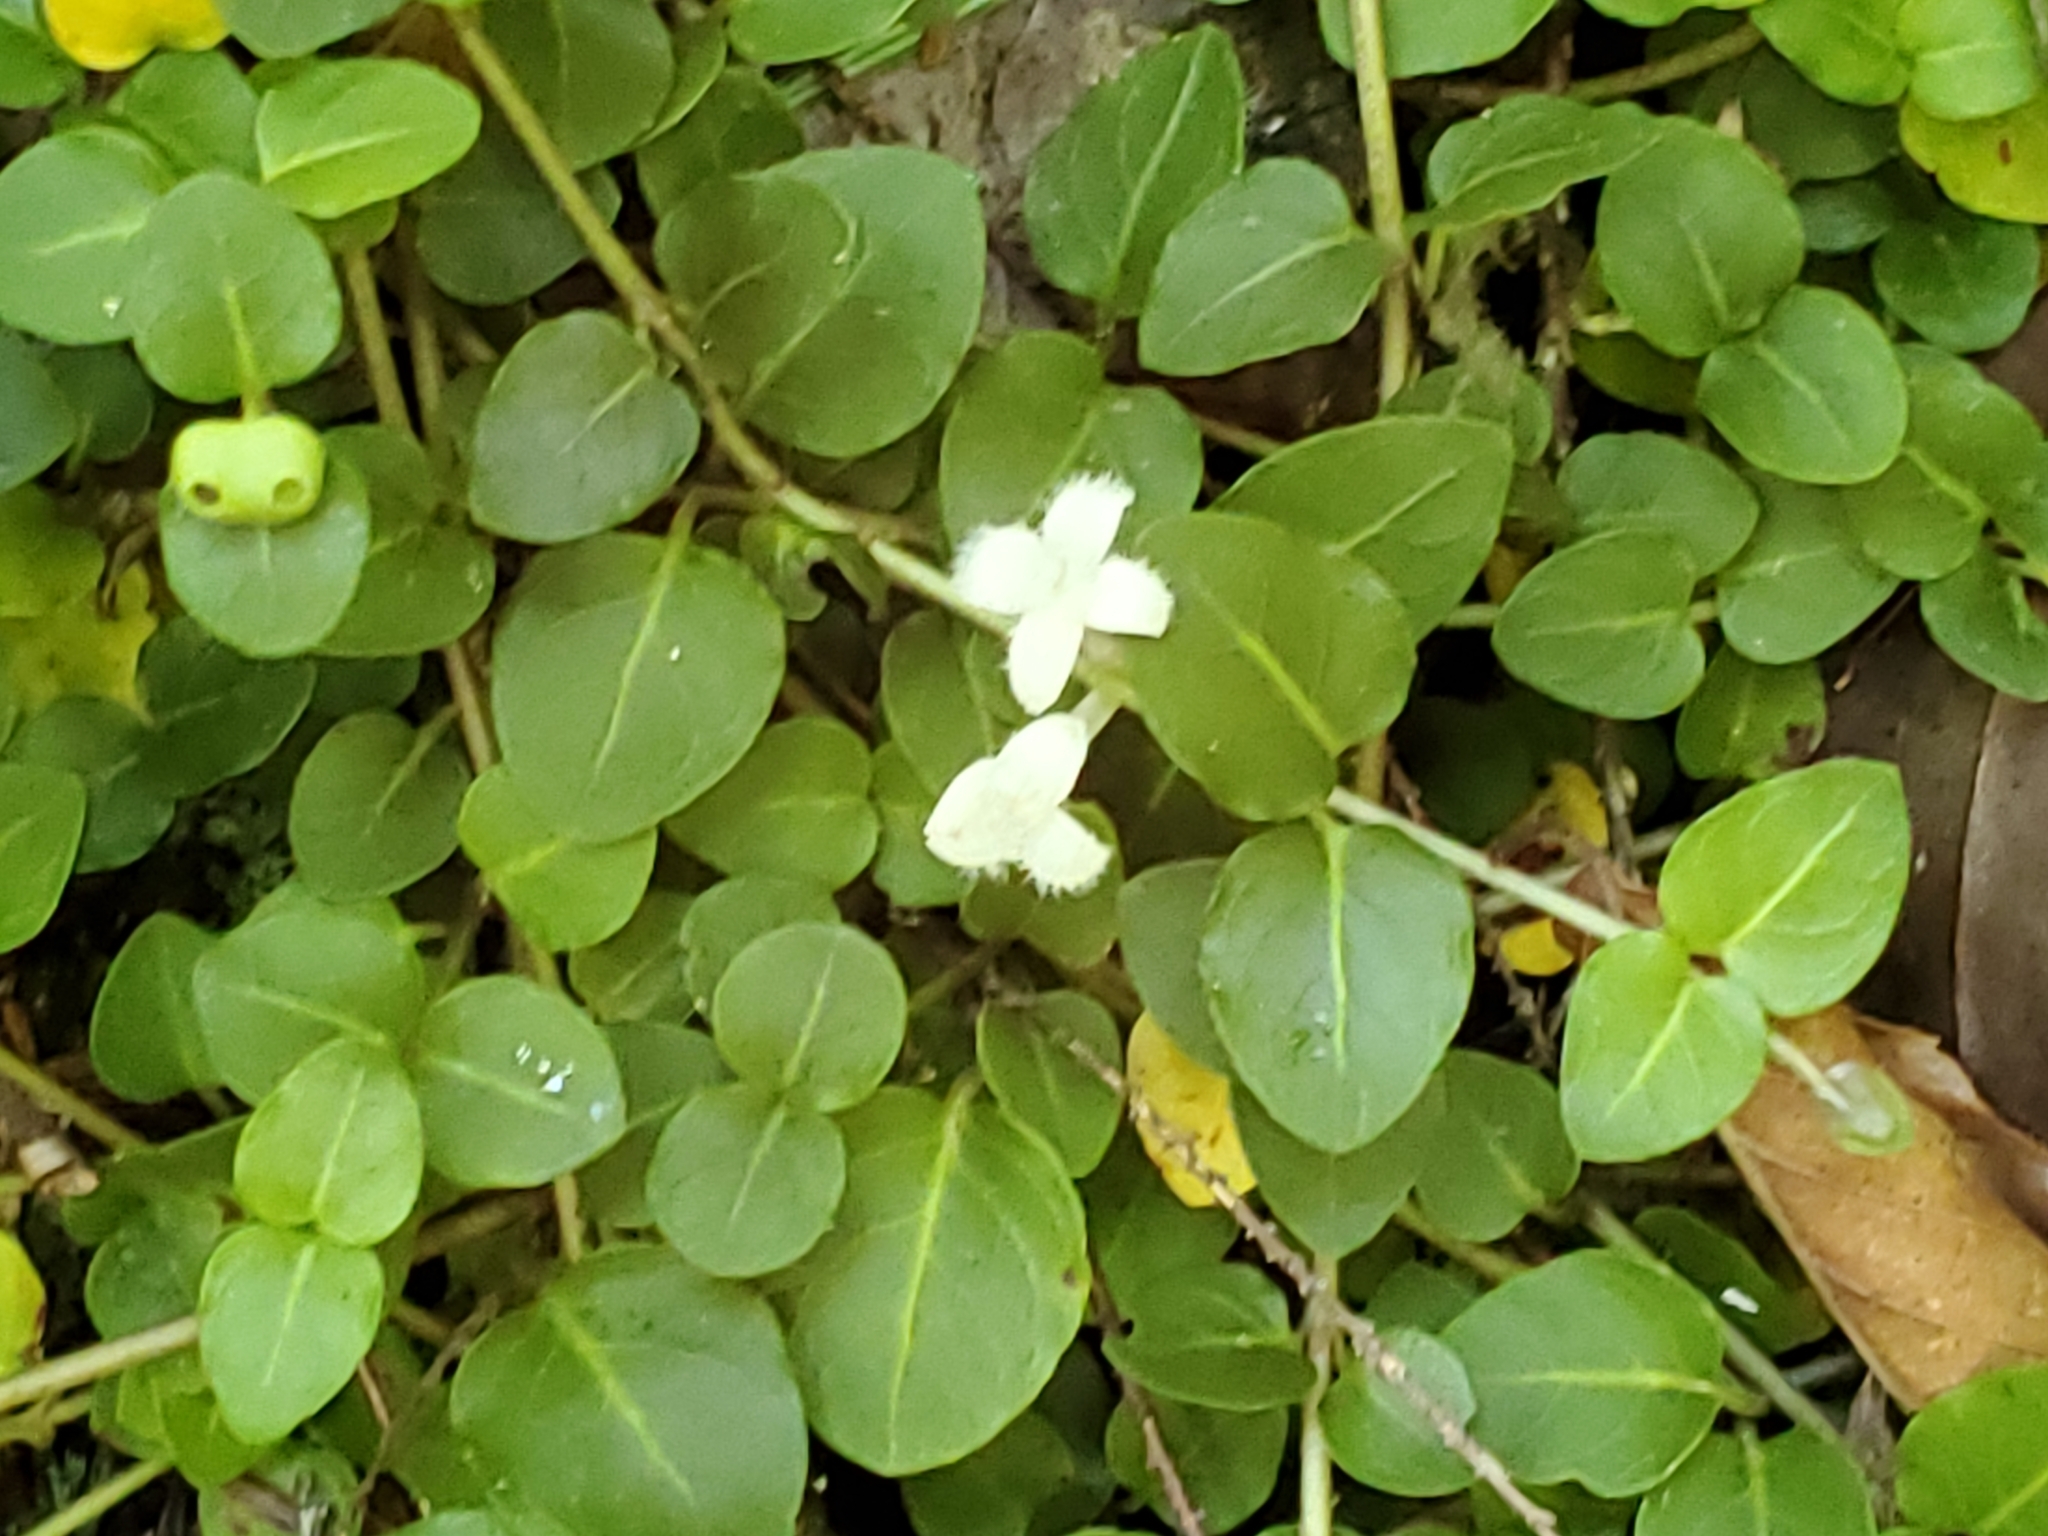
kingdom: Plantae
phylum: Tracheophyta
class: Magnoliopsida
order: Gentianales
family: Rubiaceae
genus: Mitchella
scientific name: Mitchella repens
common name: Partridge-berry
